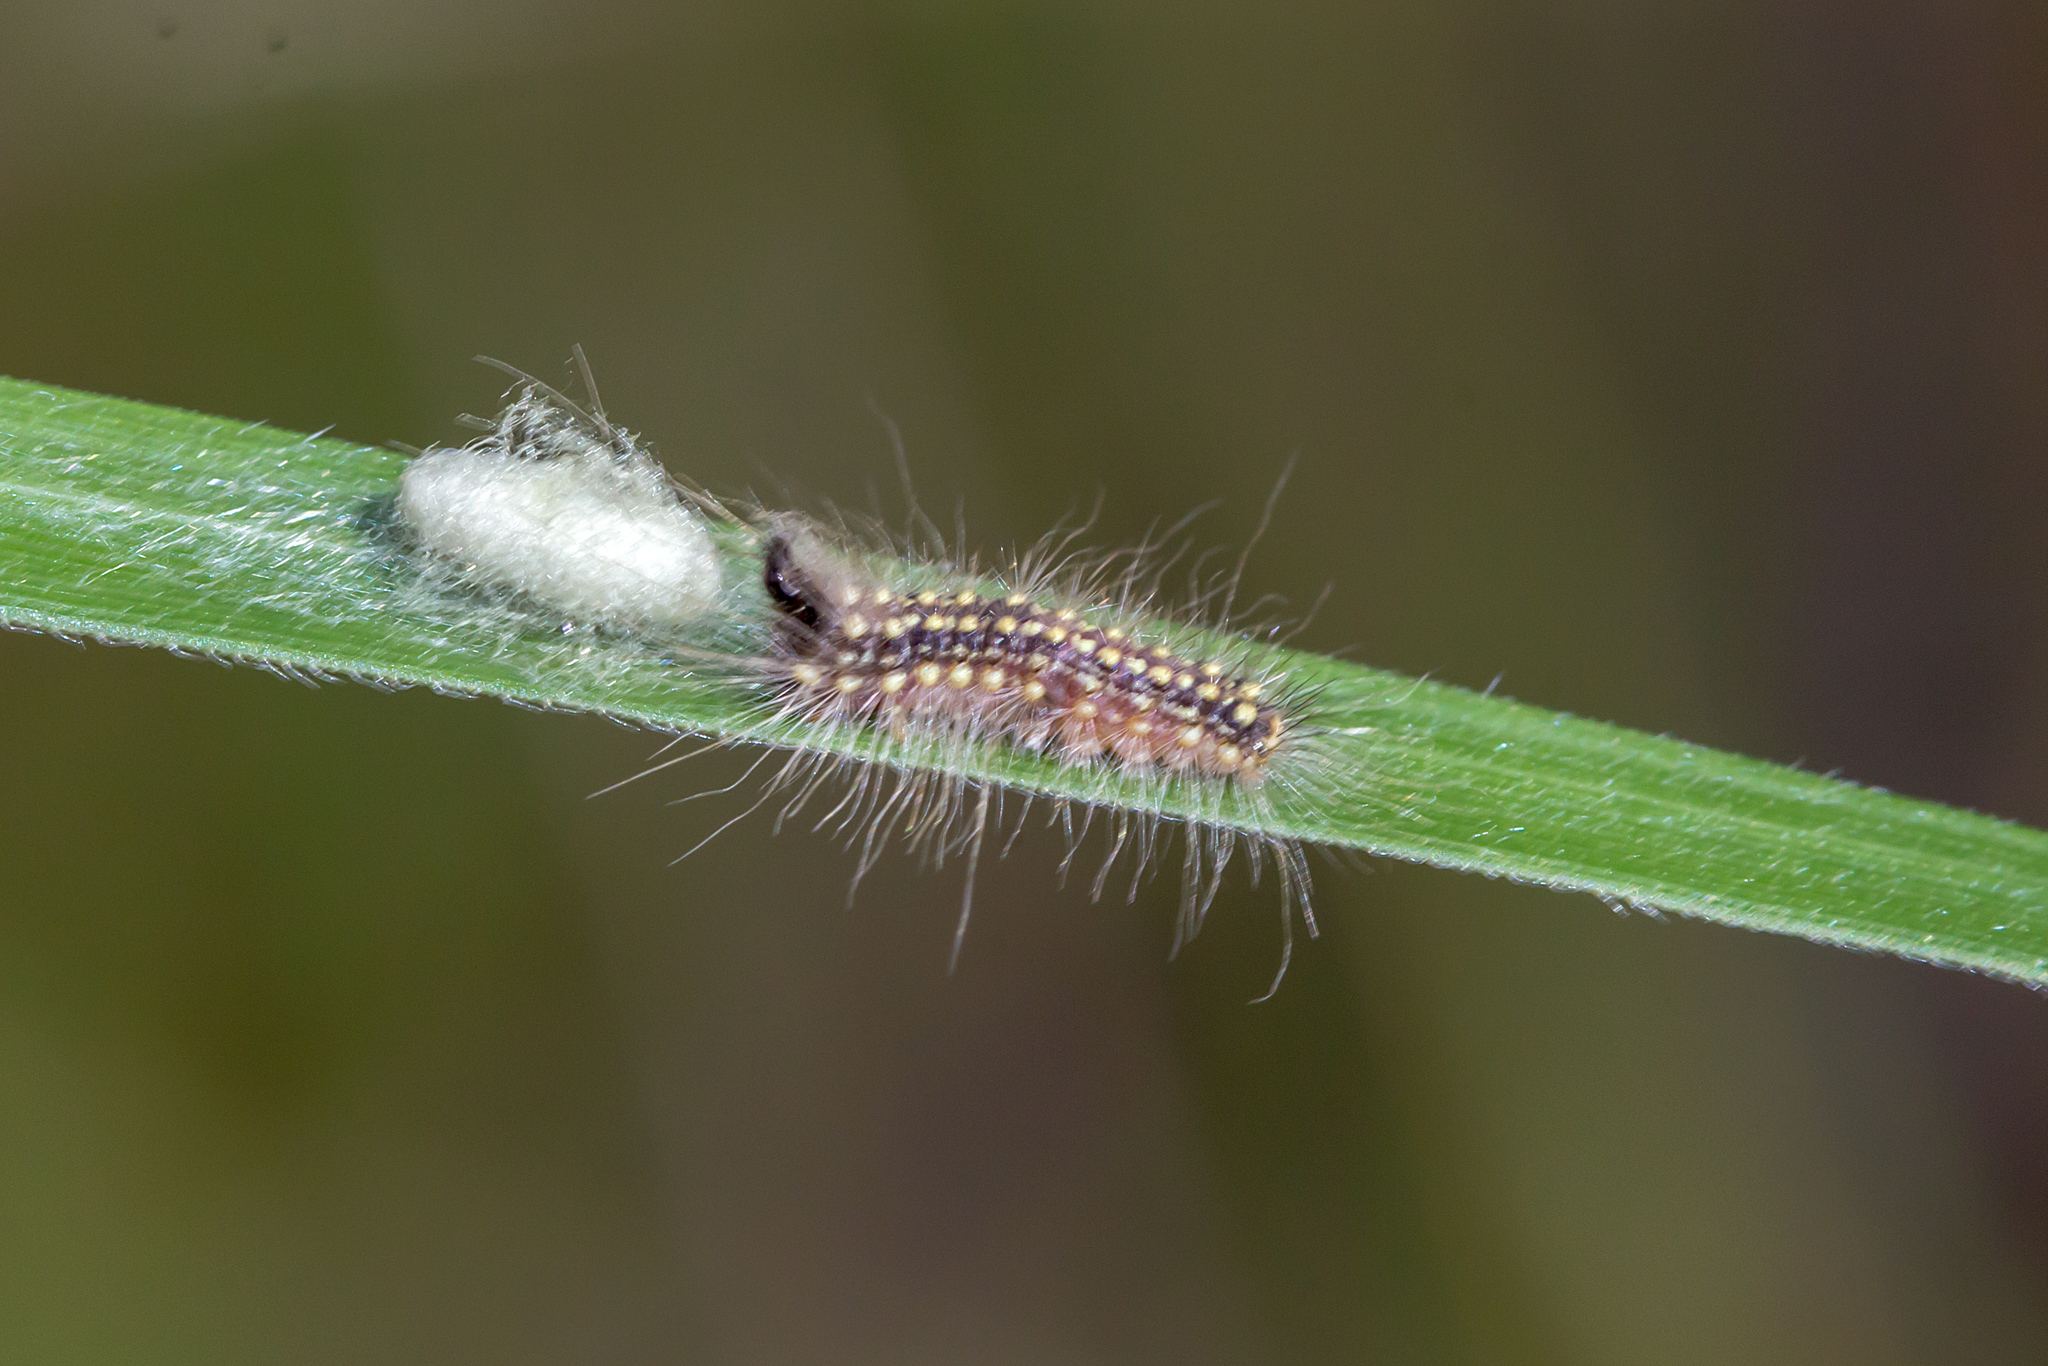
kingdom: Animalia
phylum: Arthropoda
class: Insecta
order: Lepidoptera
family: Nolidae
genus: Uraba
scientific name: Uraba lugens
